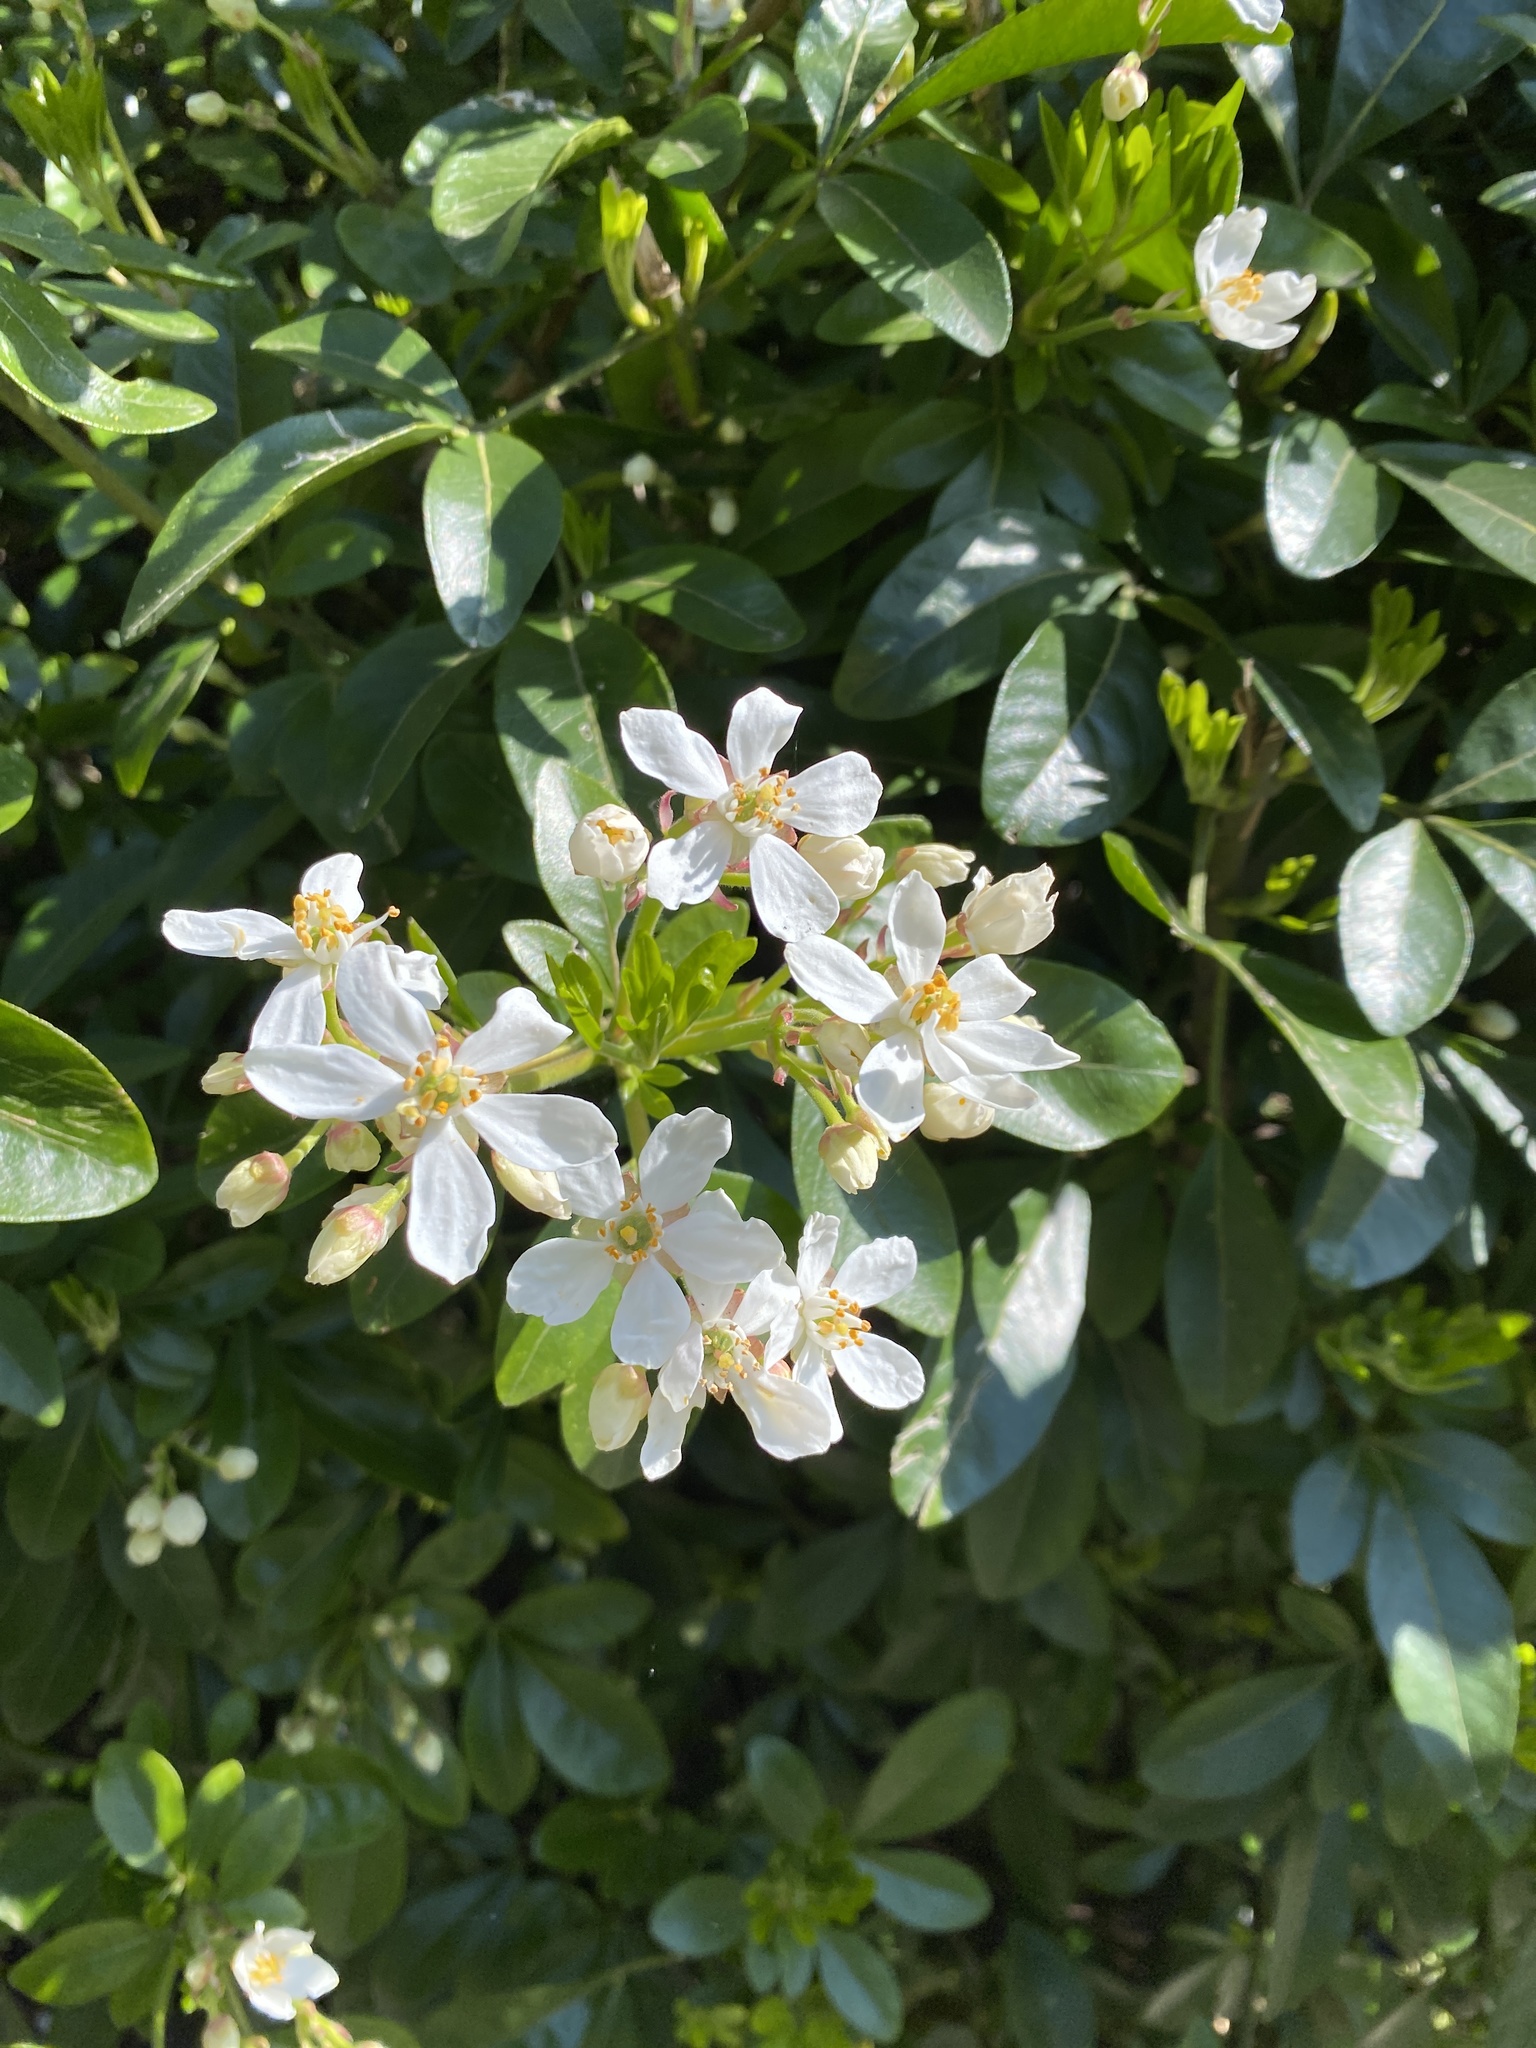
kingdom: Plantae
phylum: Tracheophyta
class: Magnoliopsida
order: Sapindales
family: Rutaceae
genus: Choisya
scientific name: Choisya ternata
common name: Mexican orange
